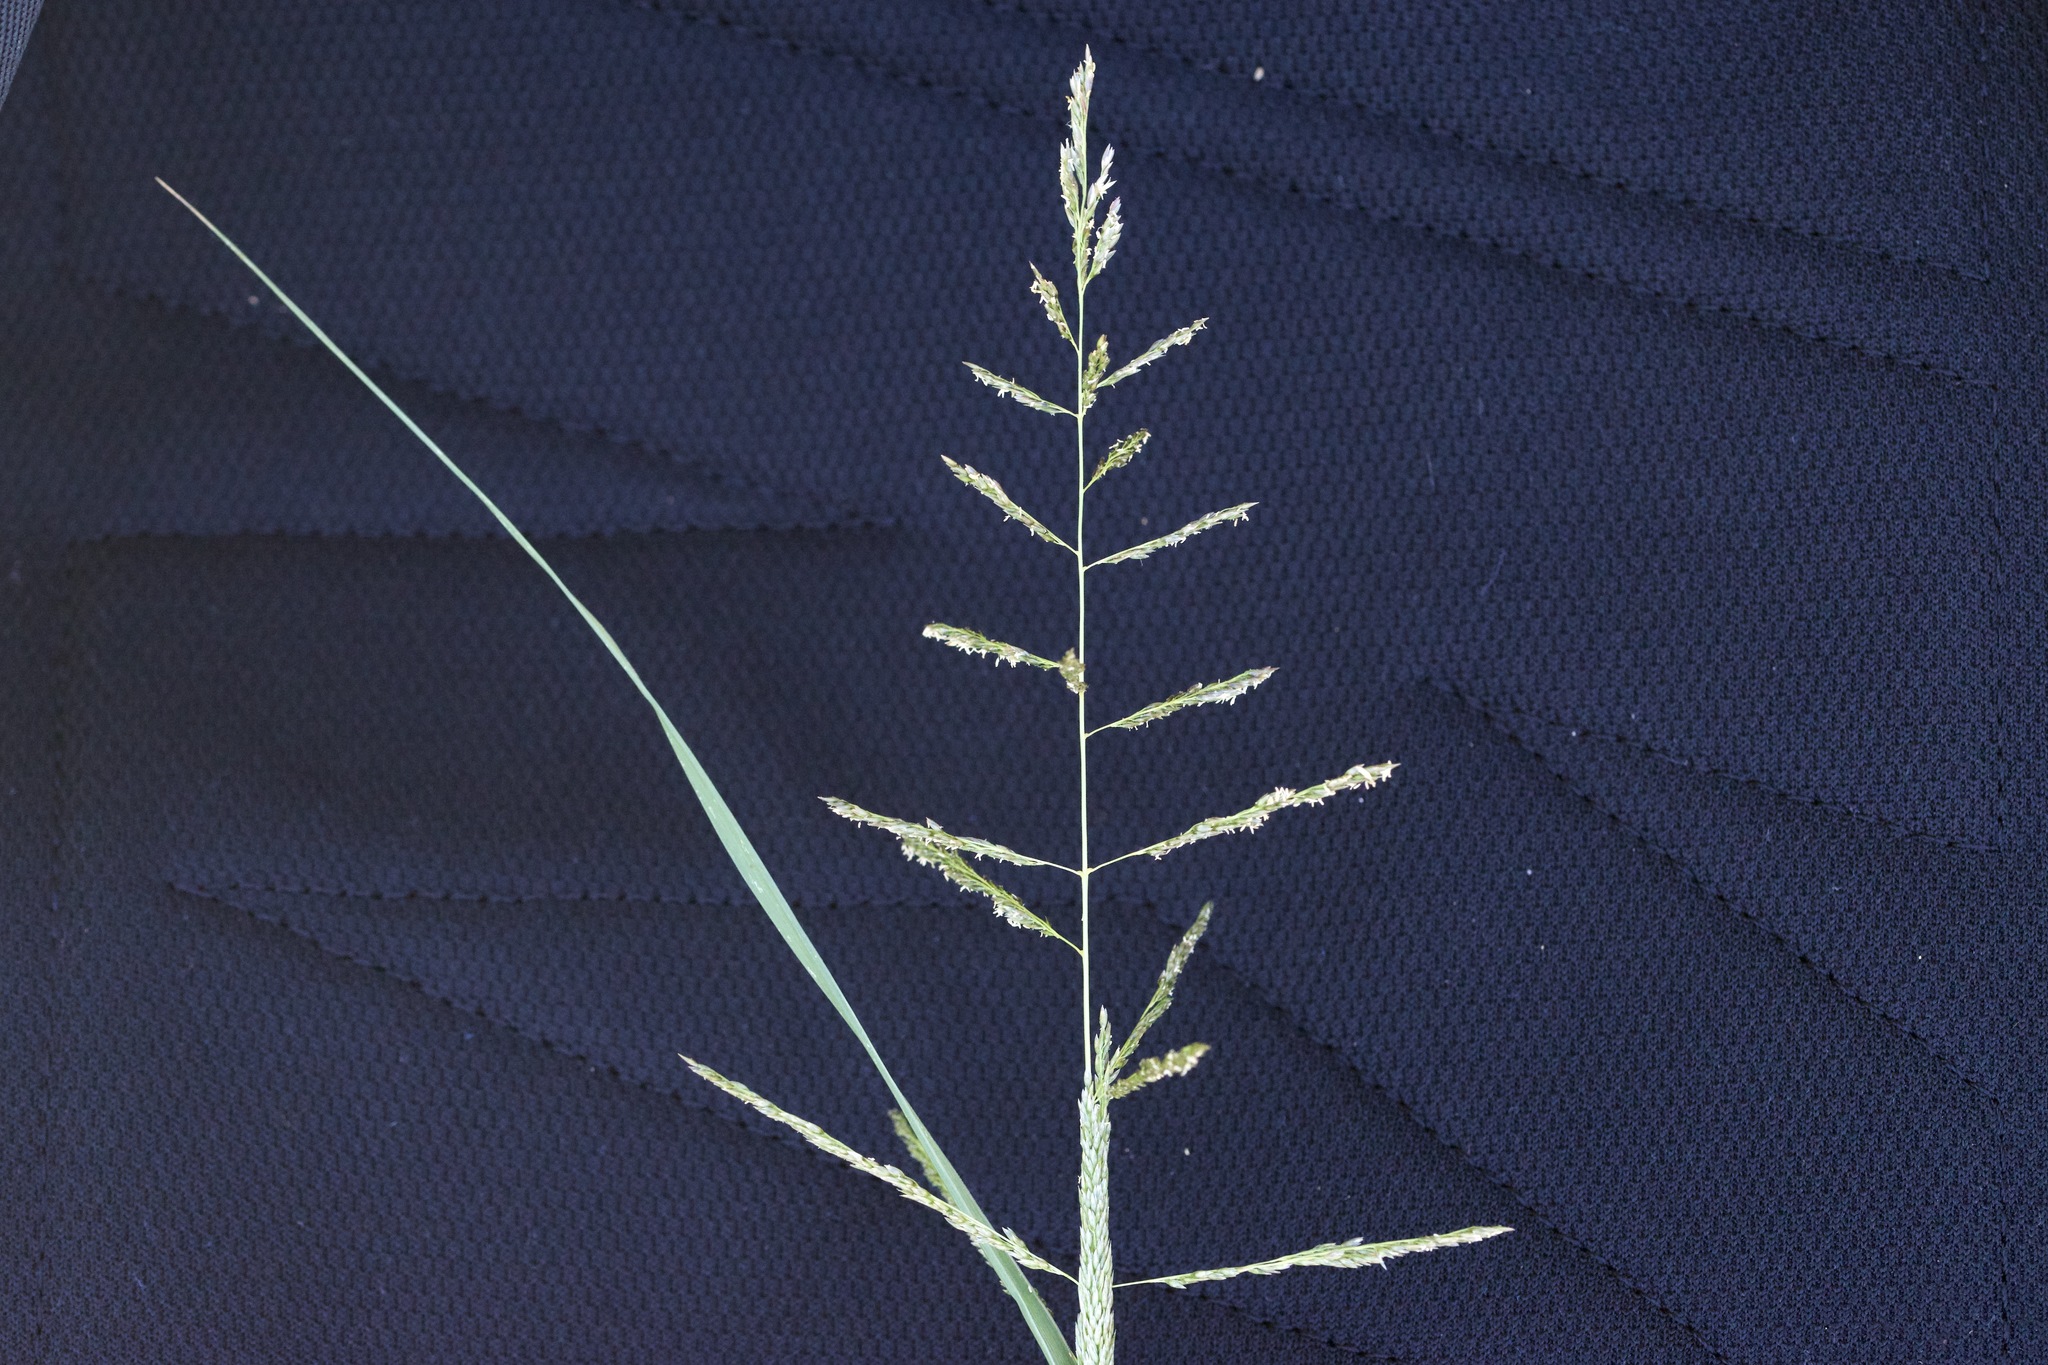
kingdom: Plantae
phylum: Tracheophyta
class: Liliopsida
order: Poales
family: Poaceae
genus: Sporobolus
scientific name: Sporobolus cryptandrus
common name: Sand dropseed
